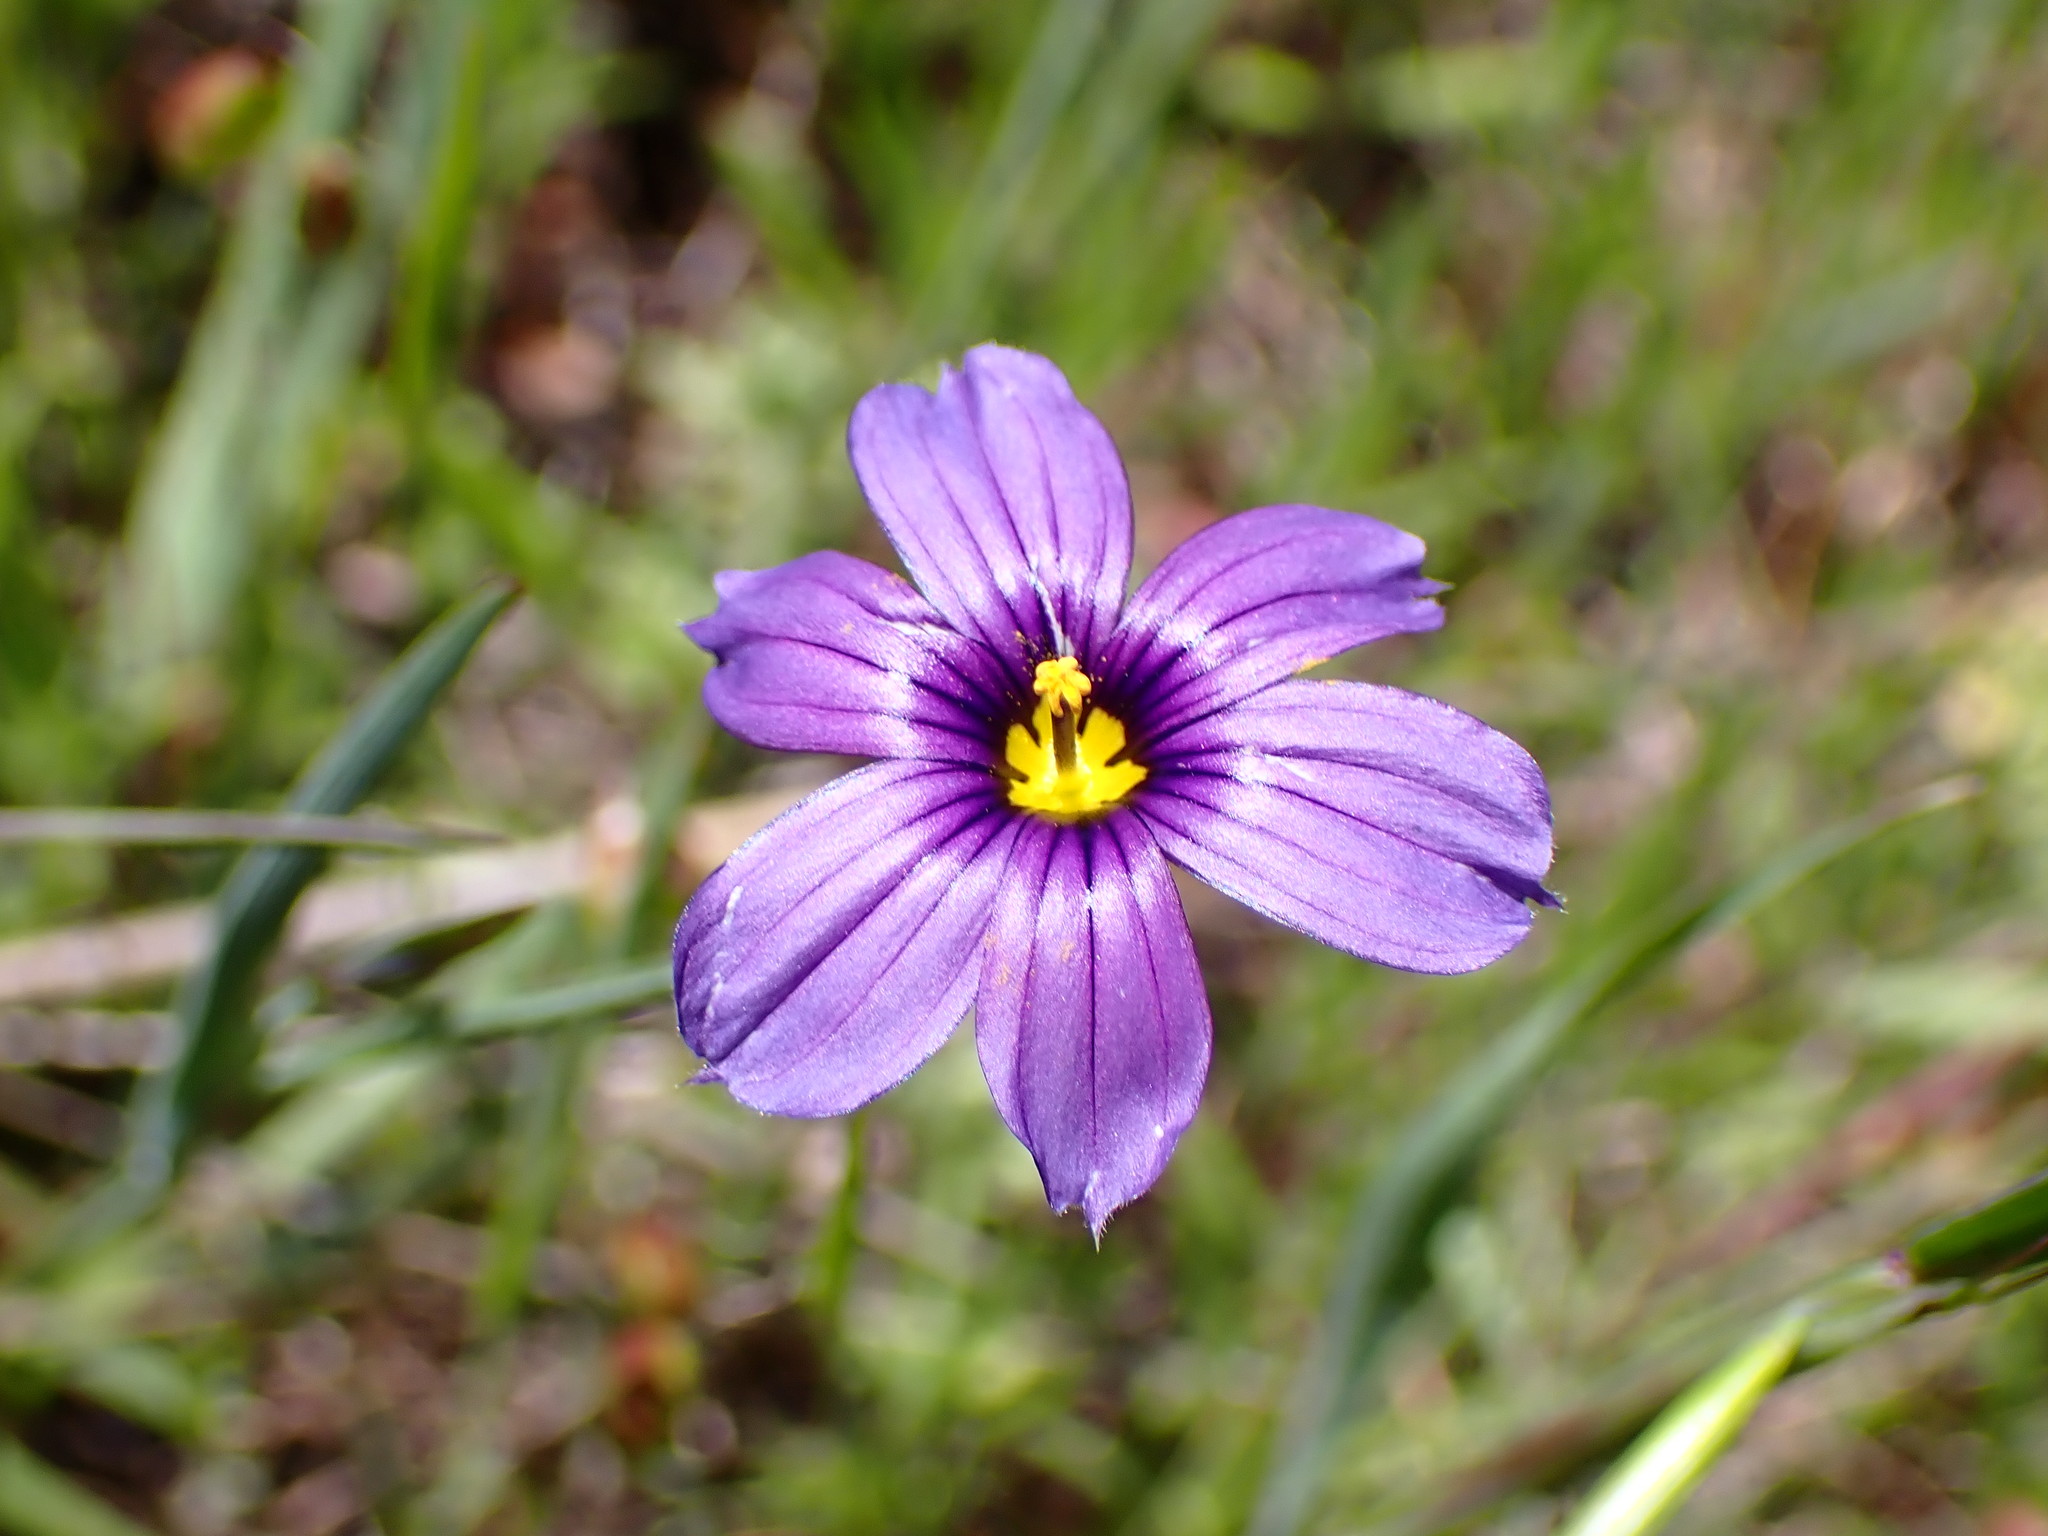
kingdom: Plantae
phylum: Tracheophyta
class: Liliopsida
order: Asparagales
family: Iridaceae
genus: Sisyrinchium
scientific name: Sisyrinchium bellum
